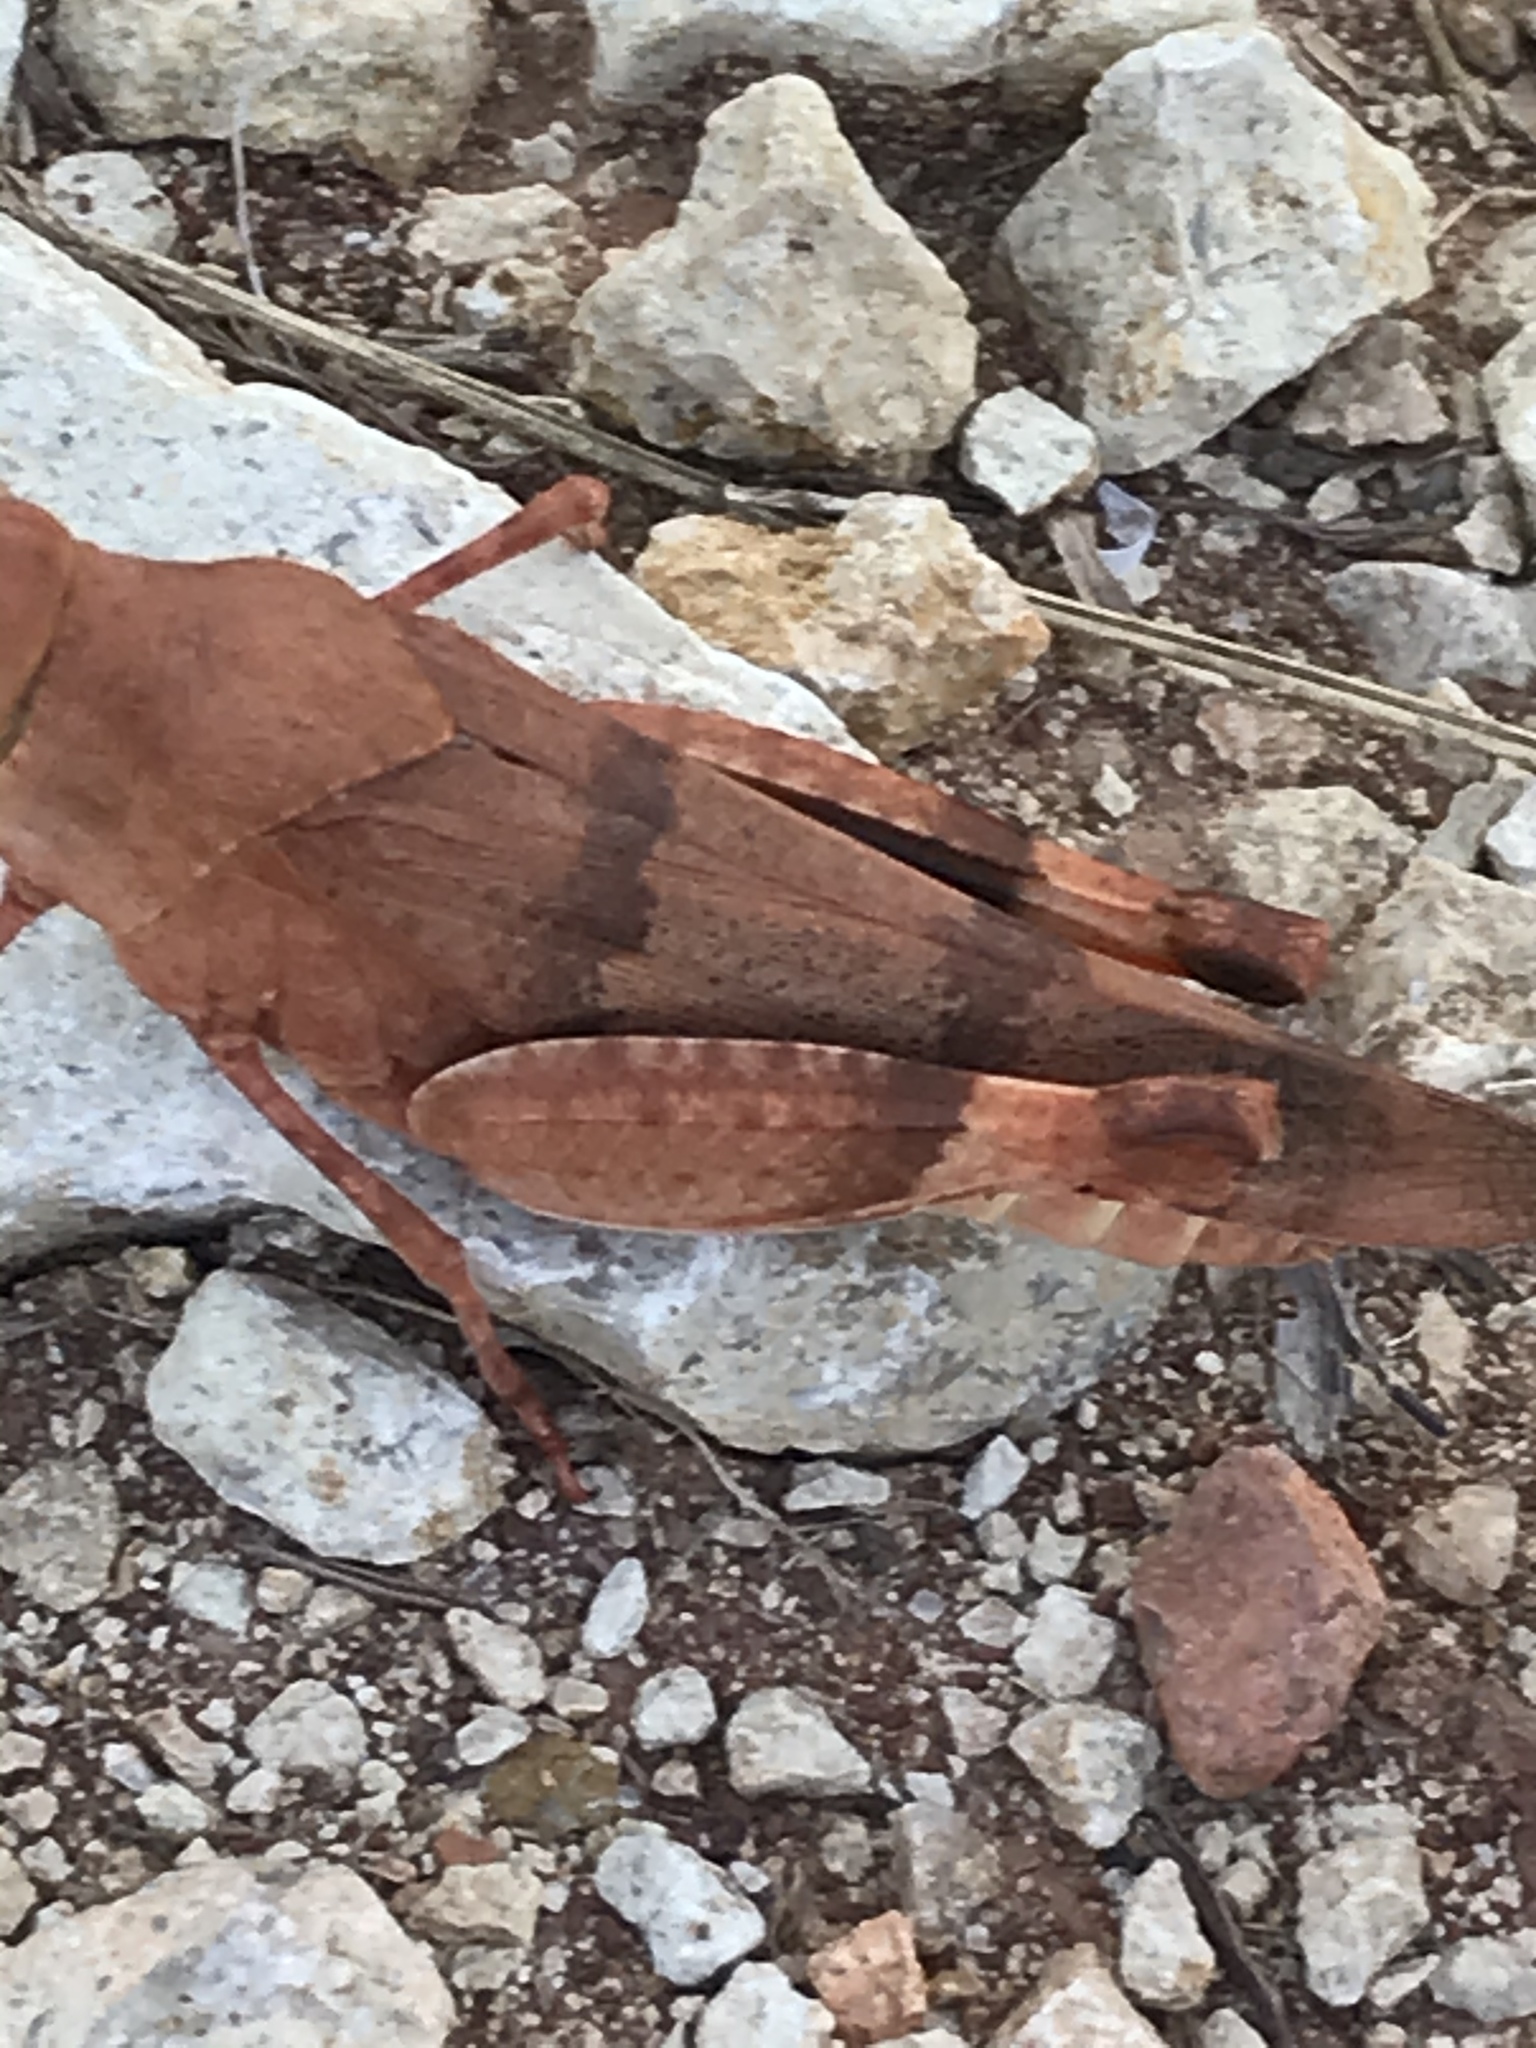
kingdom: Animalia
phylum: Arthropoda
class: Insecta
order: Orthoptera
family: Acrididae
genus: Hadrotettix
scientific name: Hadrotettix trifasciatus
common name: Threebanded grasshopper
